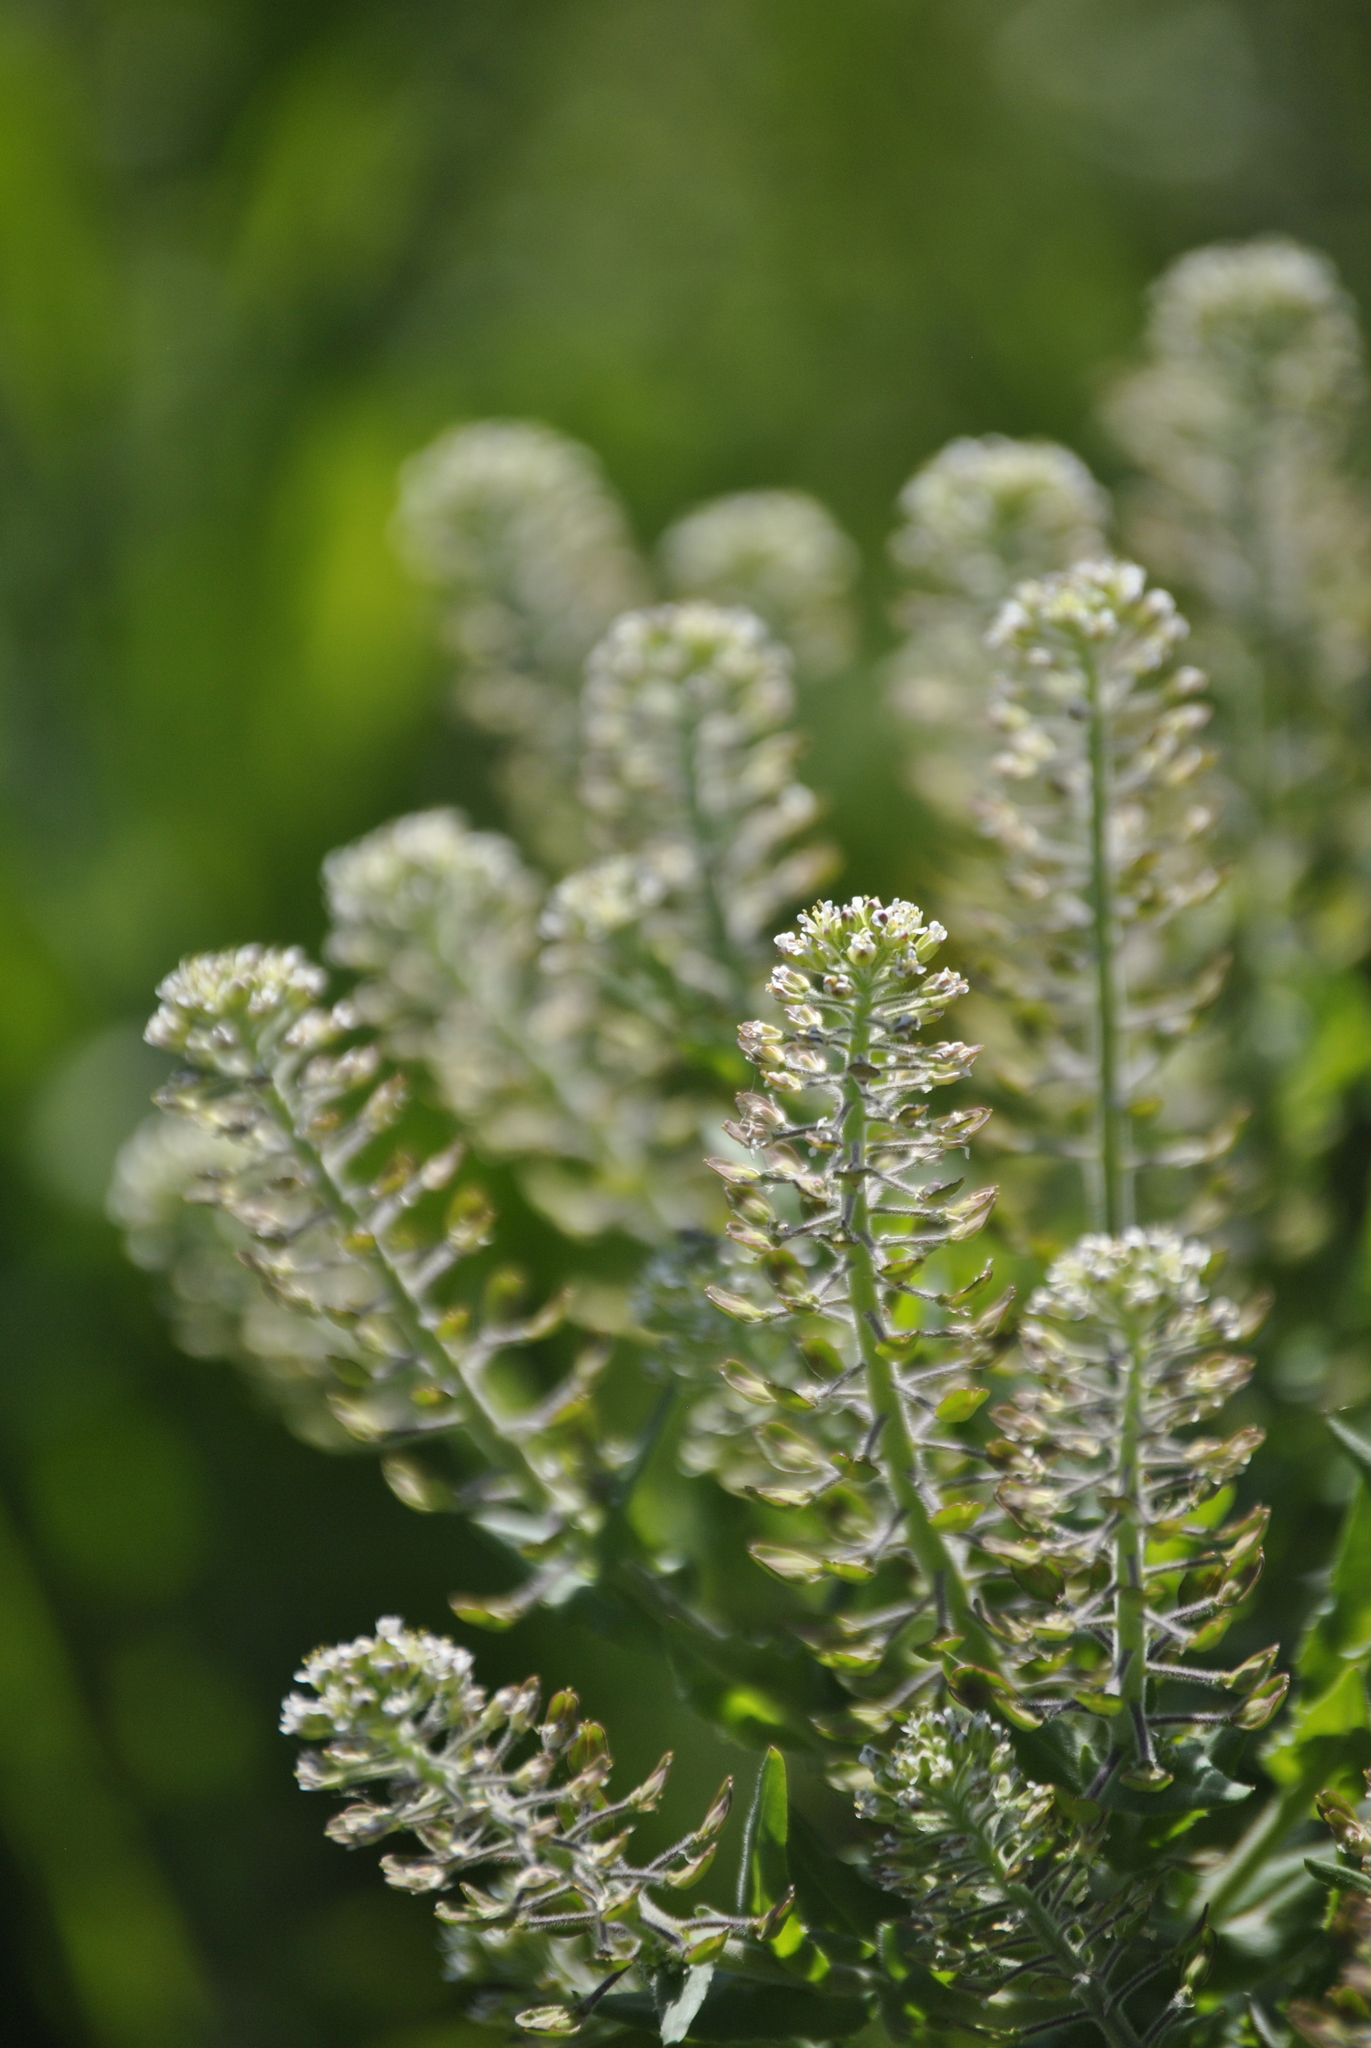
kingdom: Plantae
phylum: Tracheophyta
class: Magnoliopsida
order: Brassicales
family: Brassicaceae
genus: Lepidium
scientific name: Lepidium campestre
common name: Field pepperwort
